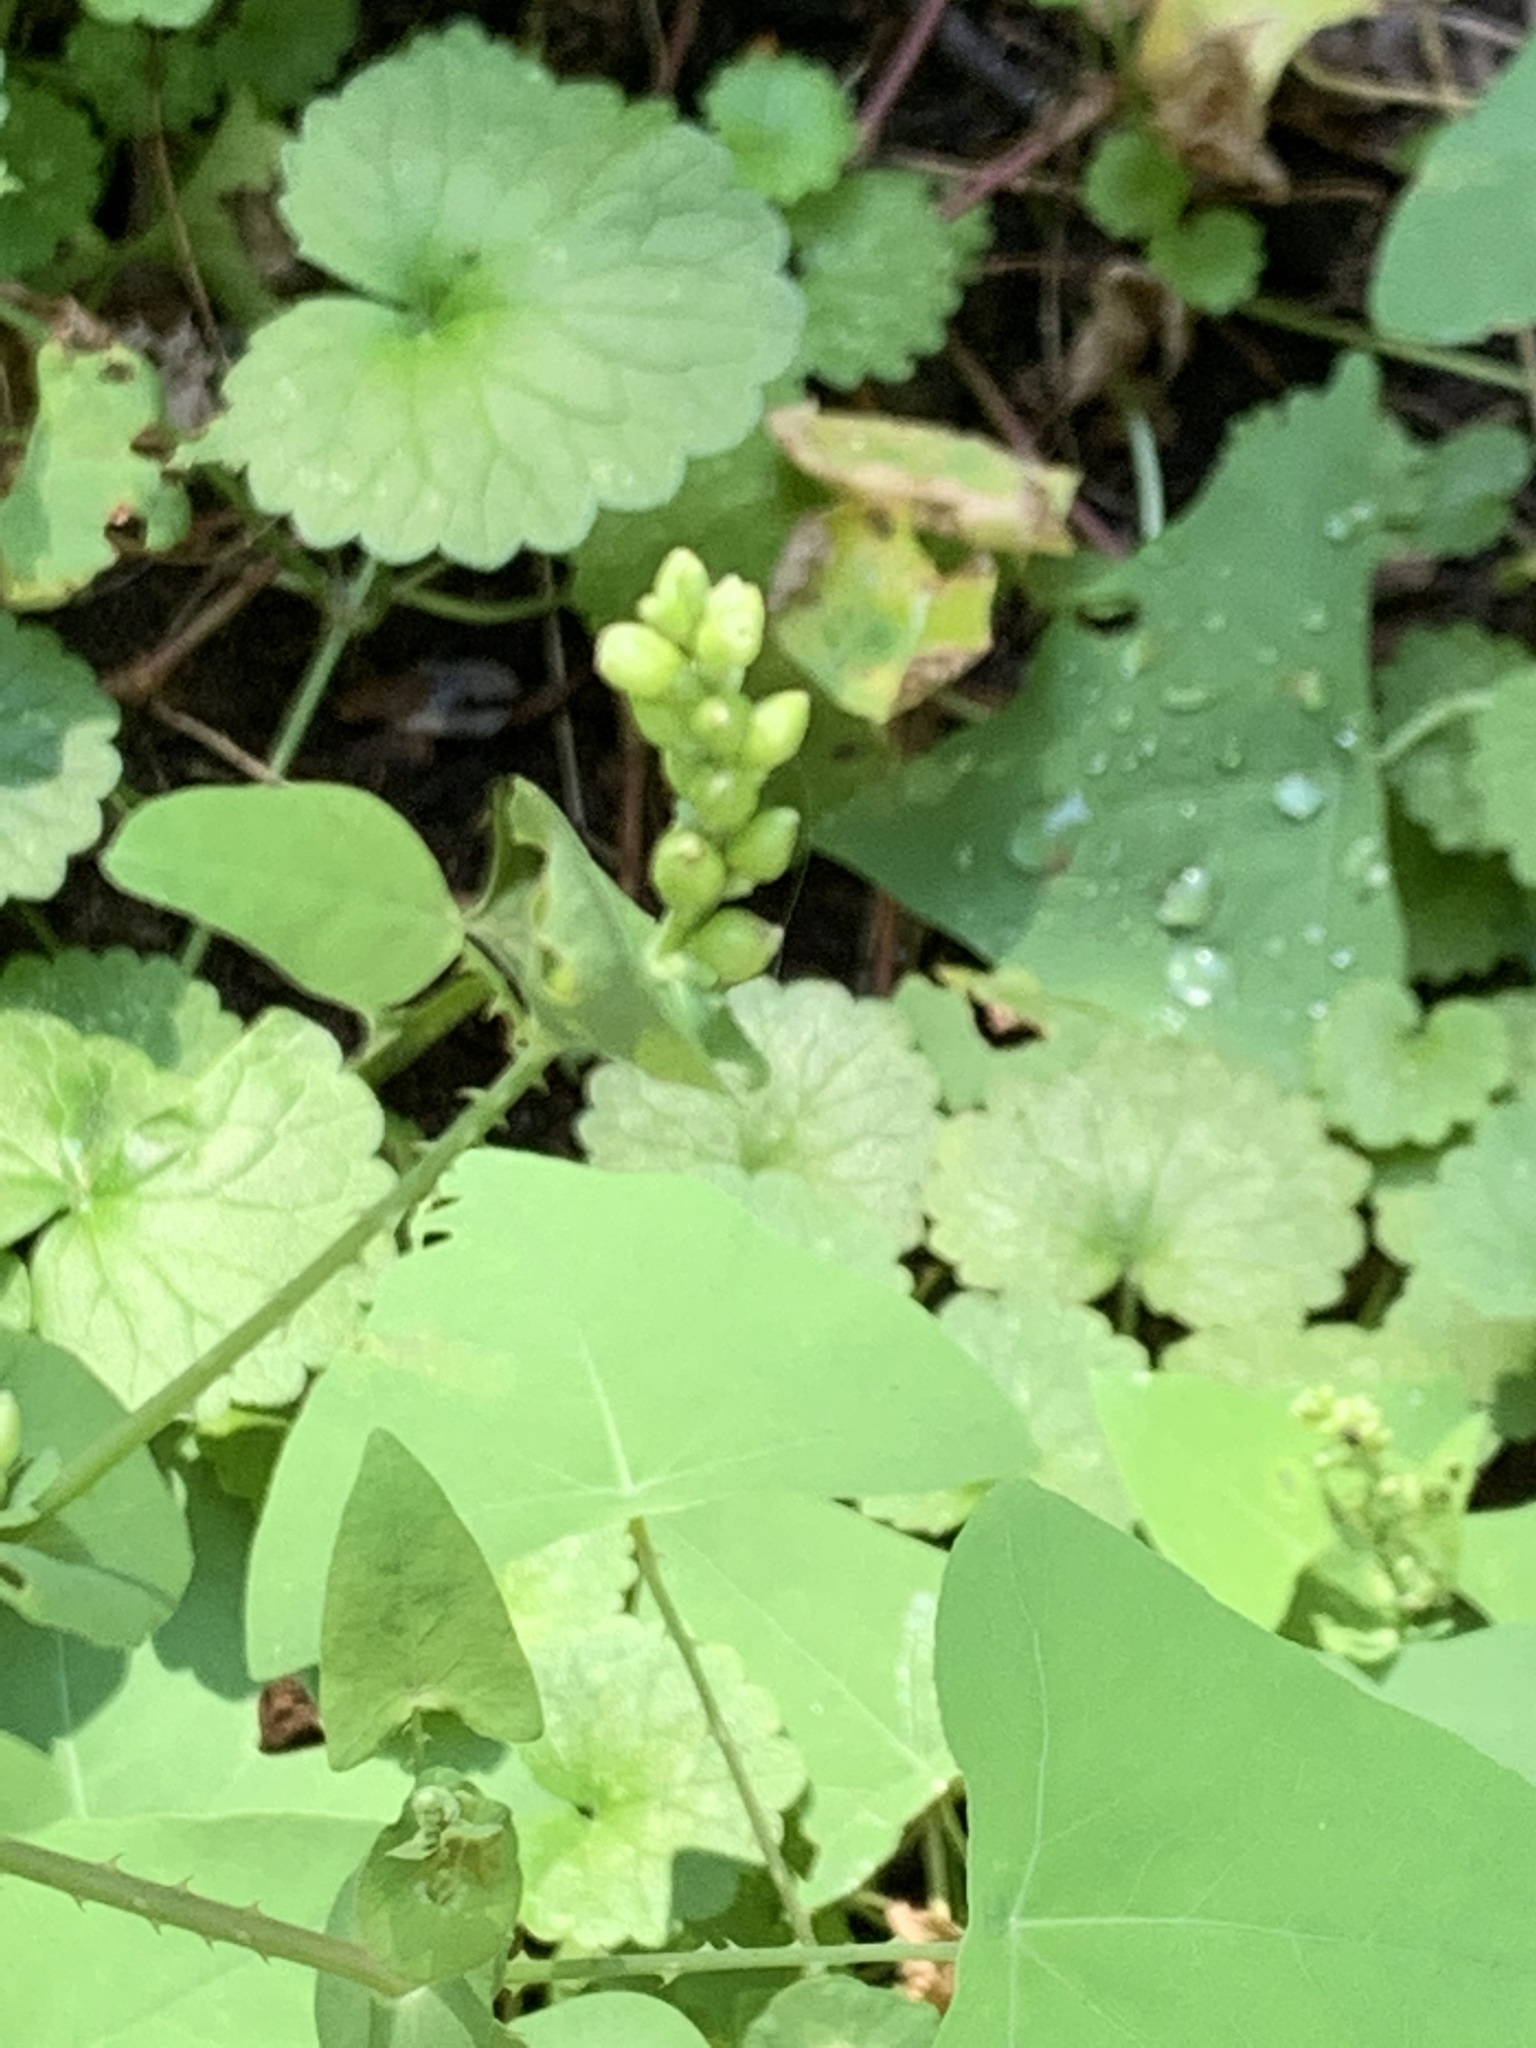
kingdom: Plantae
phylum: Tracheophyta
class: Magnoliopsida
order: Caryophyllales
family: Polygonaceae
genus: Persicaria
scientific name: Persicaria perfoliata
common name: Asiatic tearthumb
